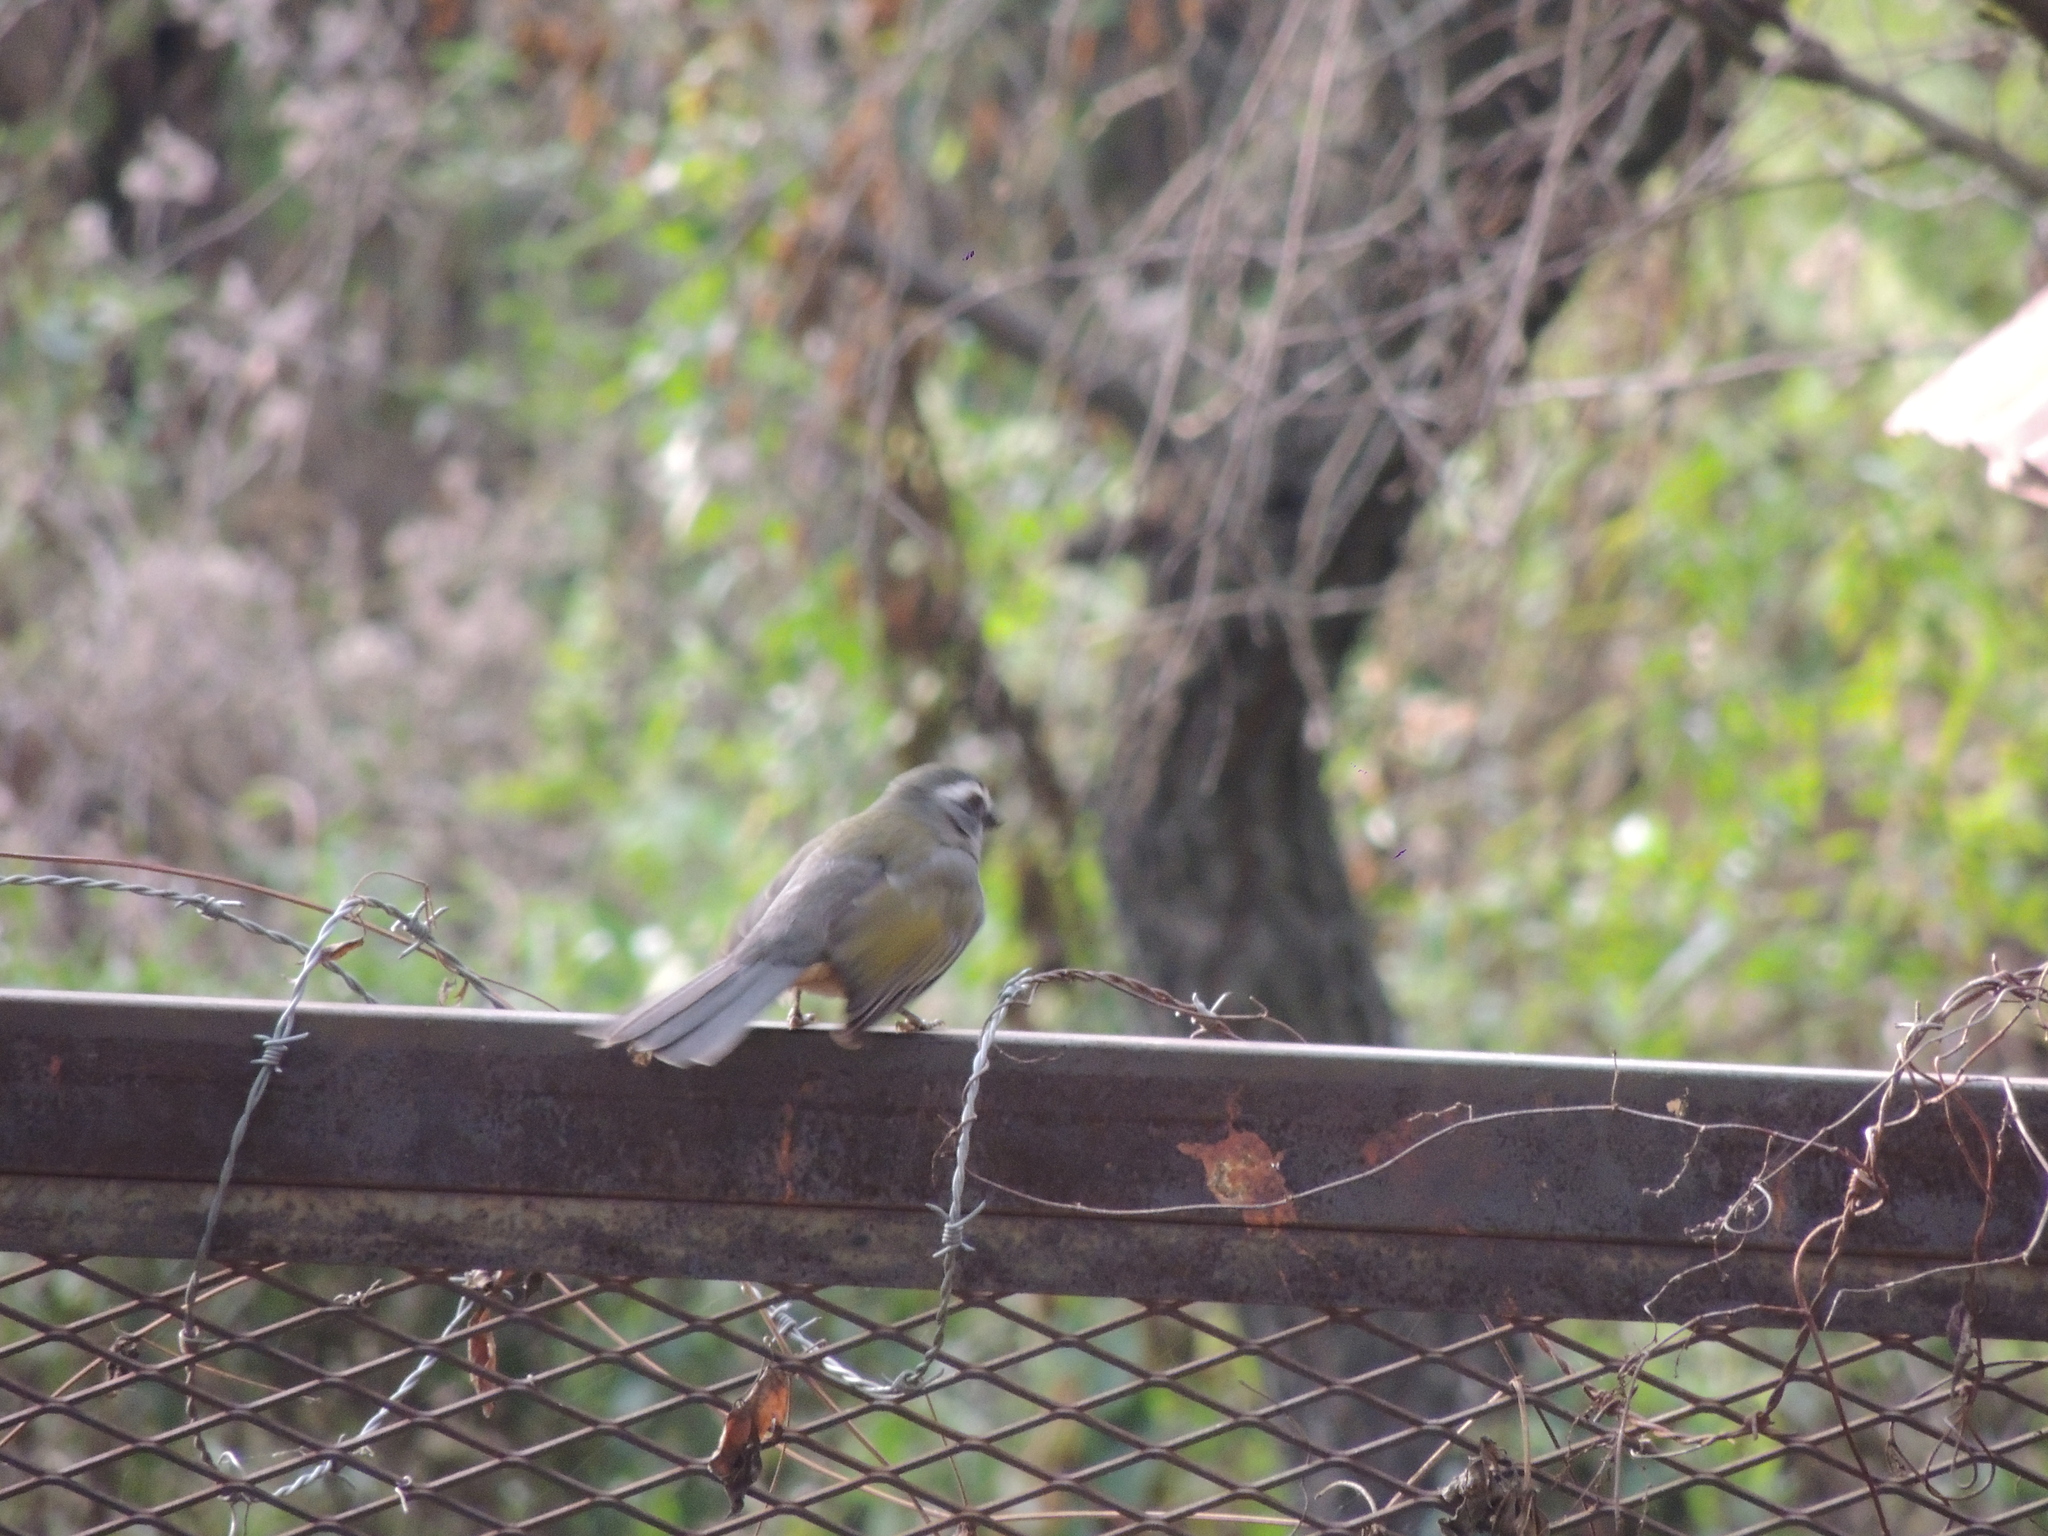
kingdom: Animalia
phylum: Chordata
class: Aves
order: Passeriformes
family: Thraupidae
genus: Saltator
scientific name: Saltator similis
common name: Green-winged saltator
